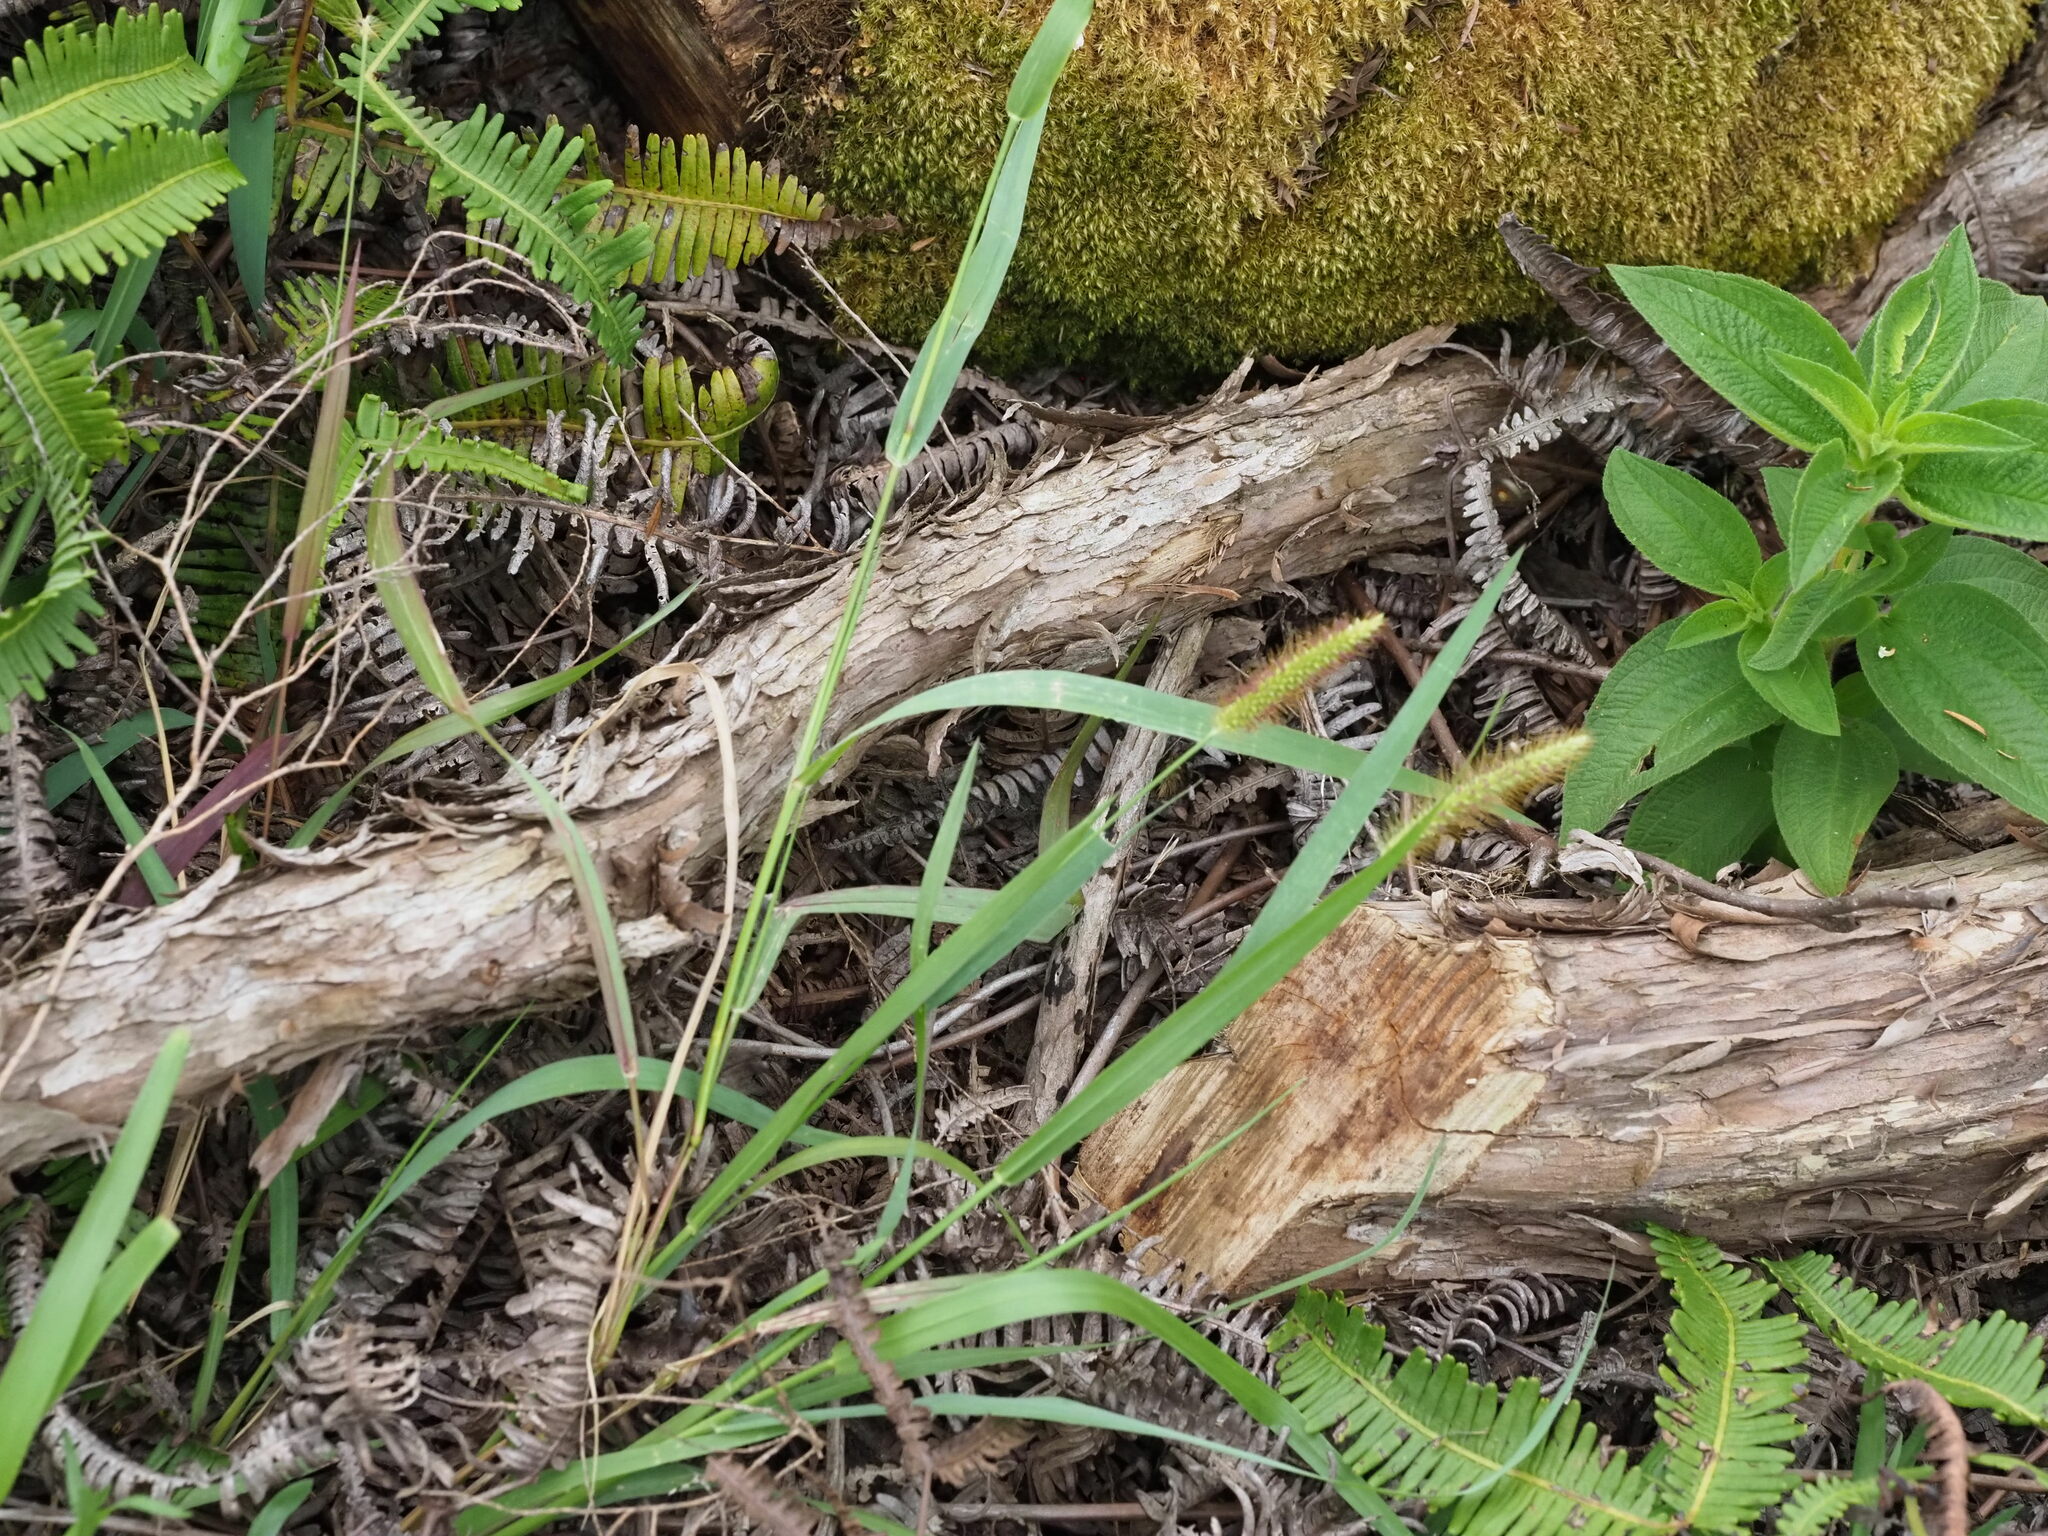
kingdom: Plantae
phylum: Tracheophyta
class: Liliopsida
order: Poales
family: Poaceae
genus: Setaria
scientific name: Setaria parviflora
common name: Knotroot bristle-grass
